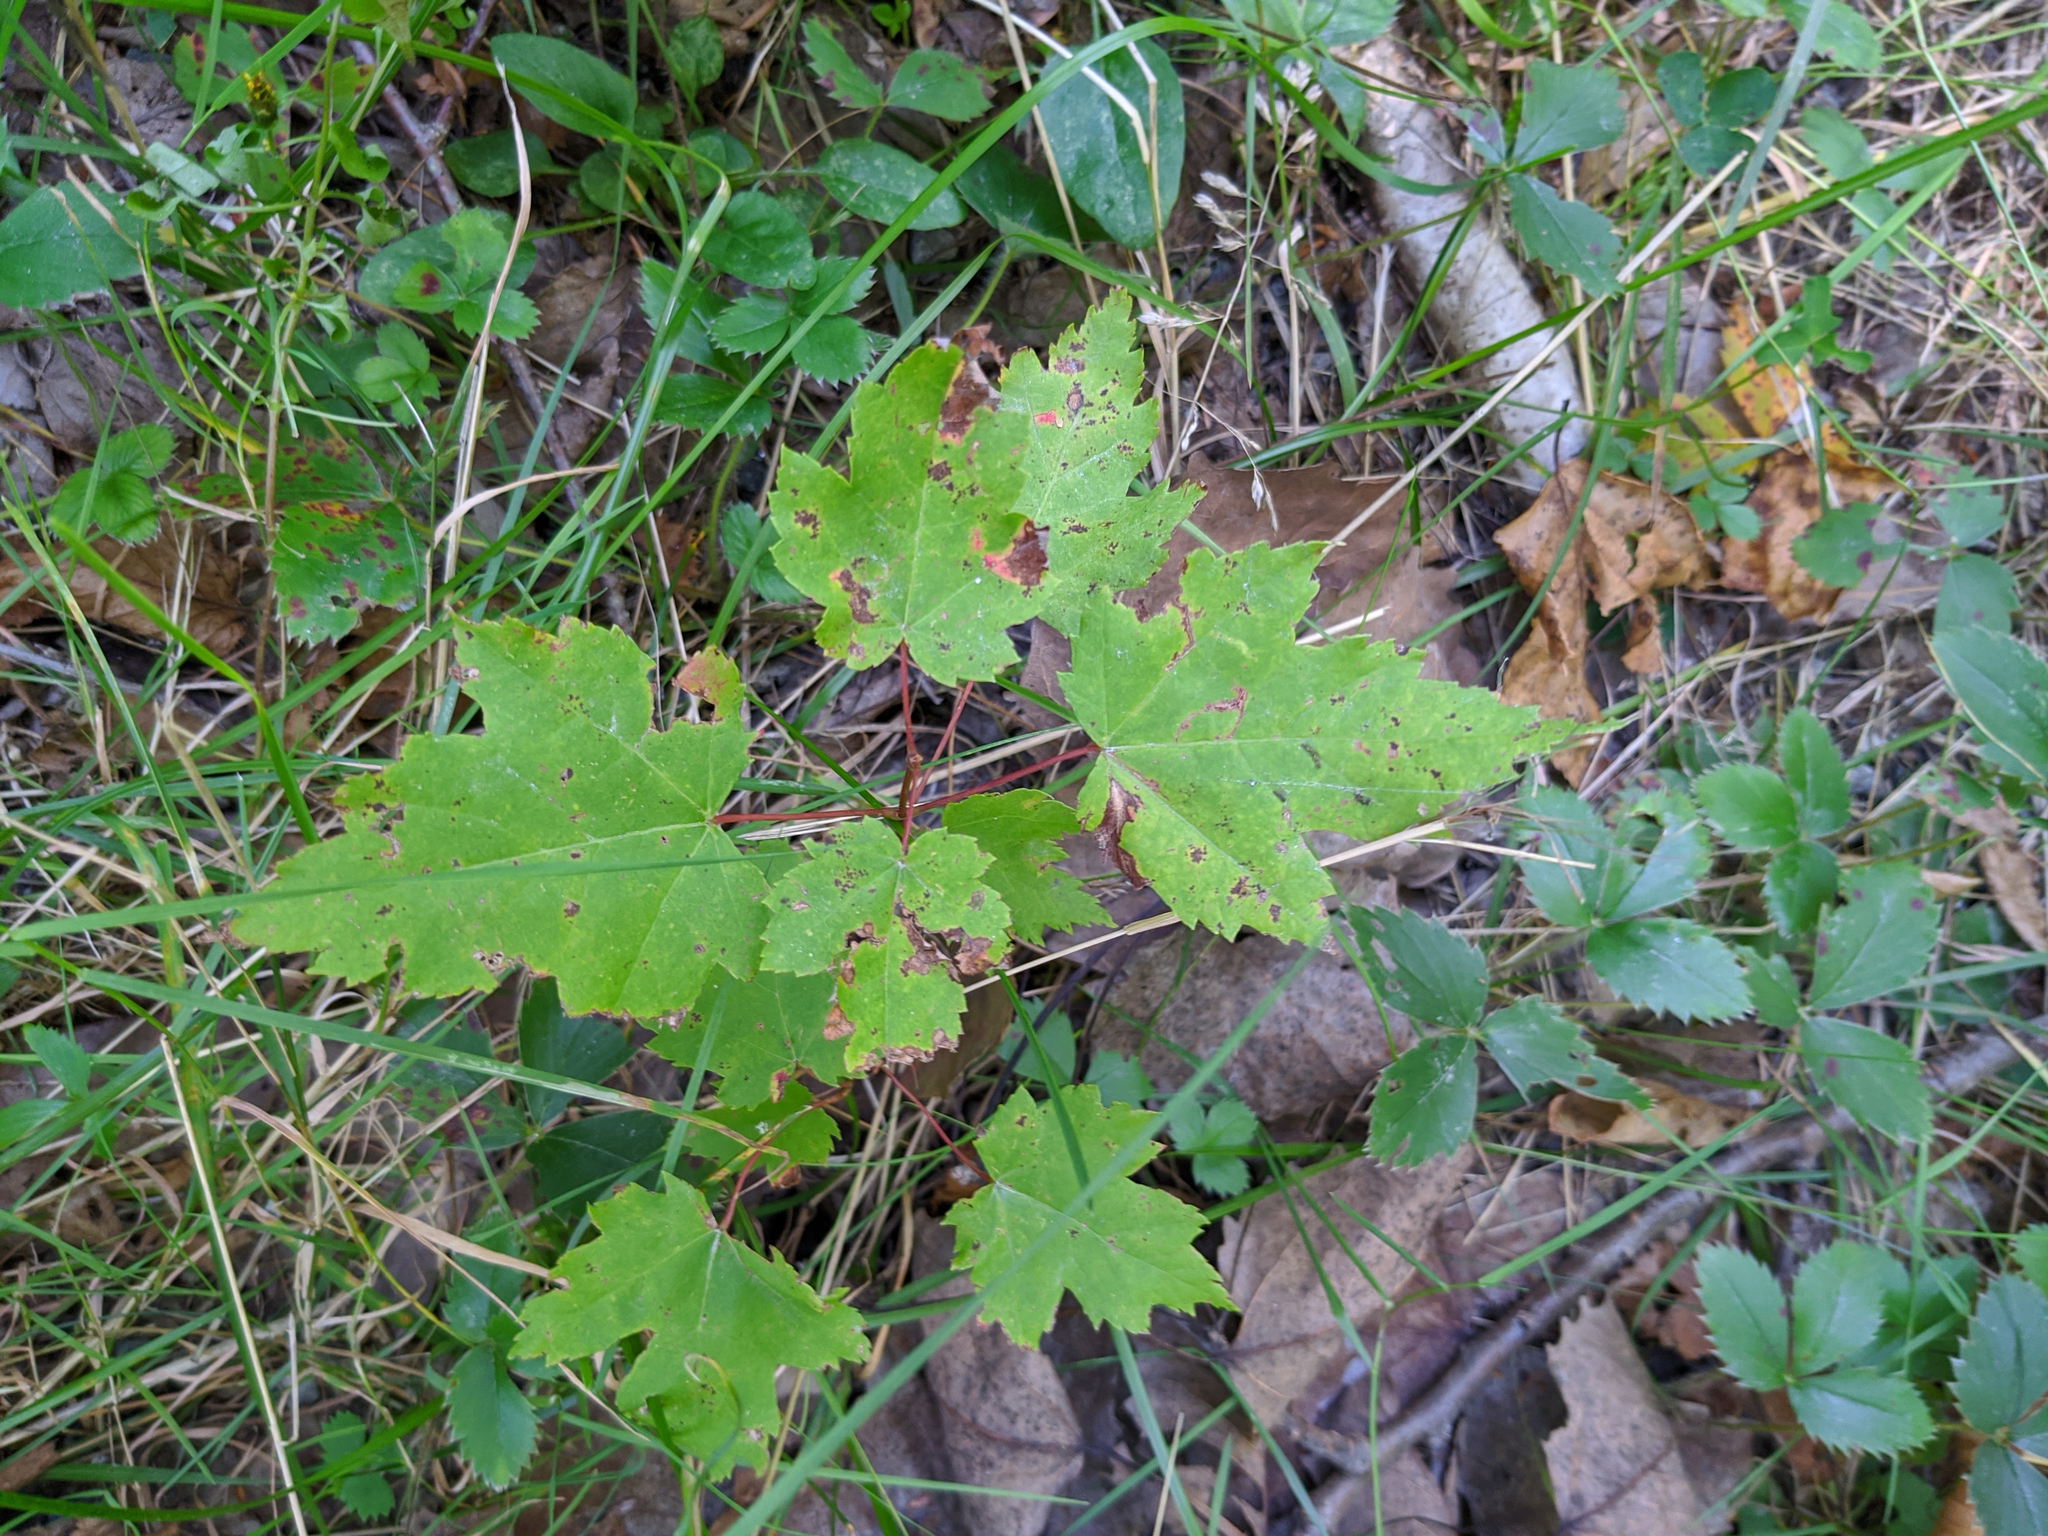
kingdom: Plantae
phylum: Tracheophyta
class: Magnoliopsida
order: Sapindales
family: Sapindaceae
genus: Acer
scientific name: Acer rubrum
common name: Red maple
